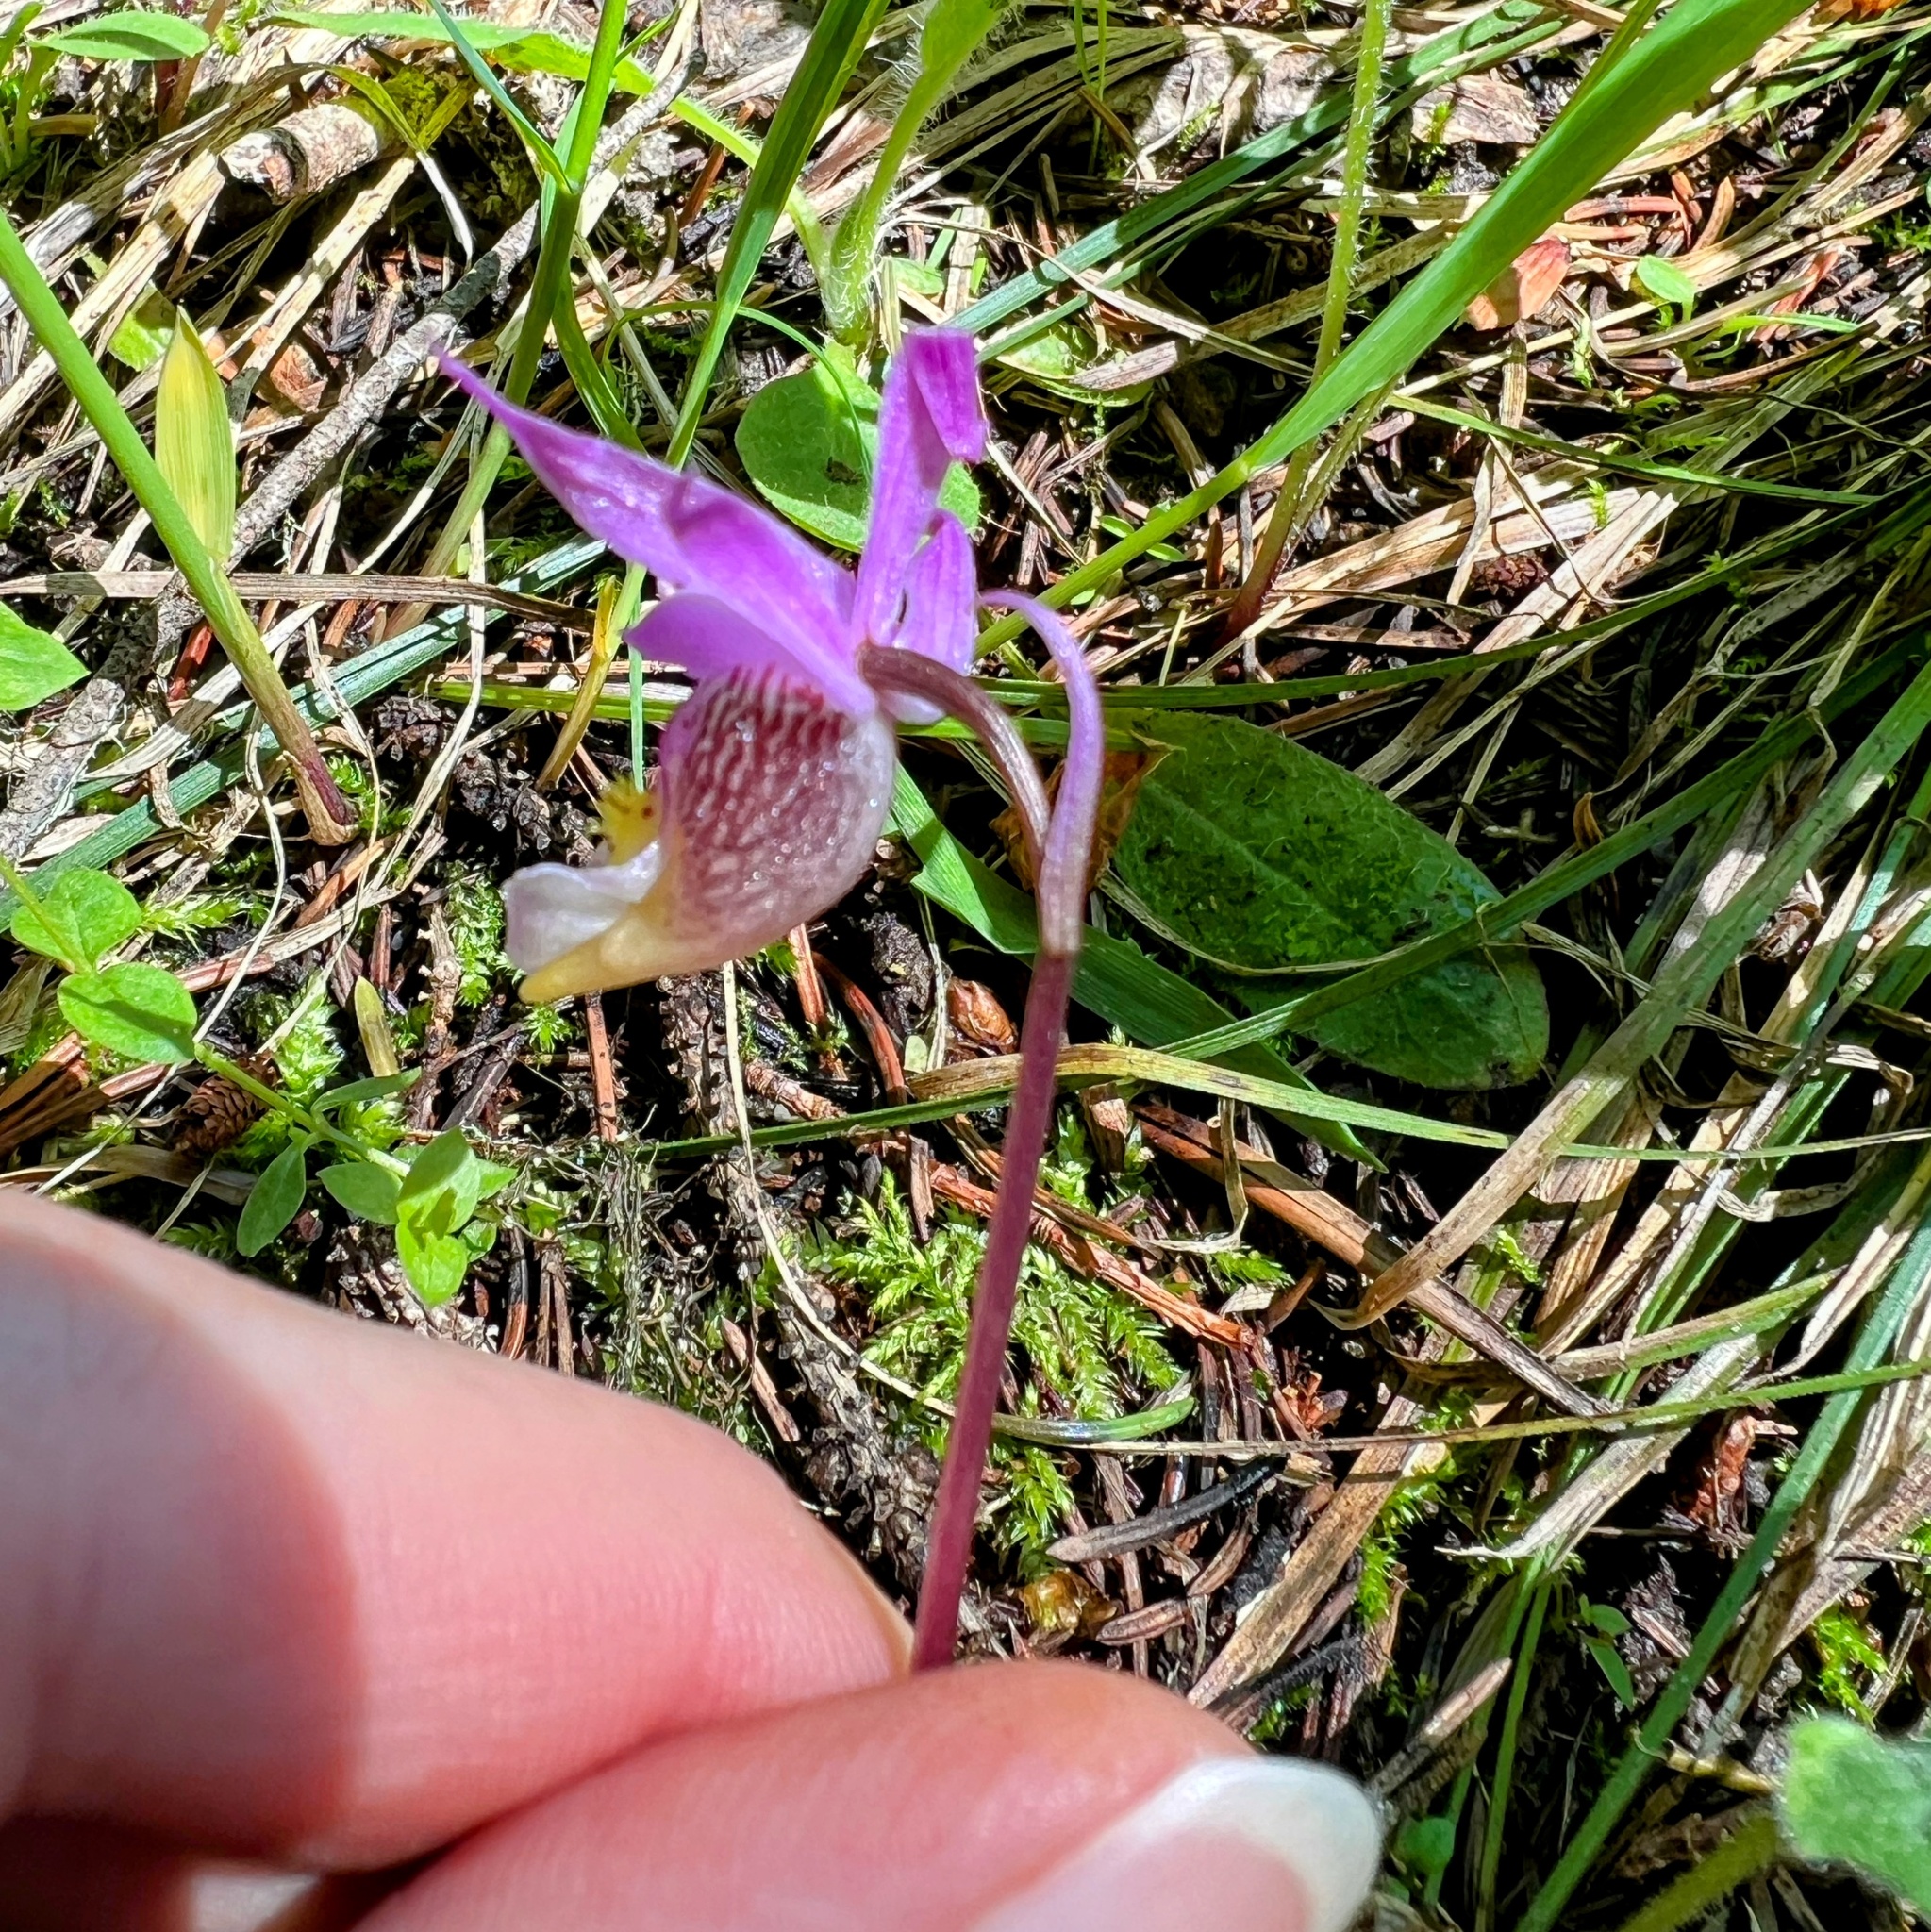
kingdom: Plantae
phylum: Tracheophyta
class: Liliopsida
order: Asparagales
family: Orchidaceae
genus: Calypso
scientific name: Calypso bulbosa
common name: Calypso
